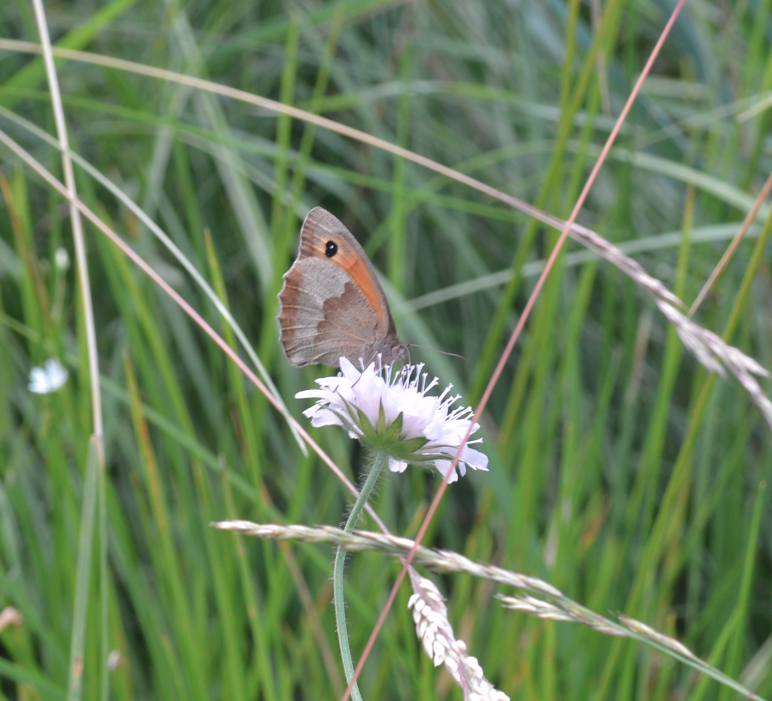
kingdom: Animalia
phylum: Arthropoda
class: Insecta
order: Lepidoptera
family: Nymphalidae
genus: Maniola
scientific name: Maniola jurtina
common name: Meadow brown
